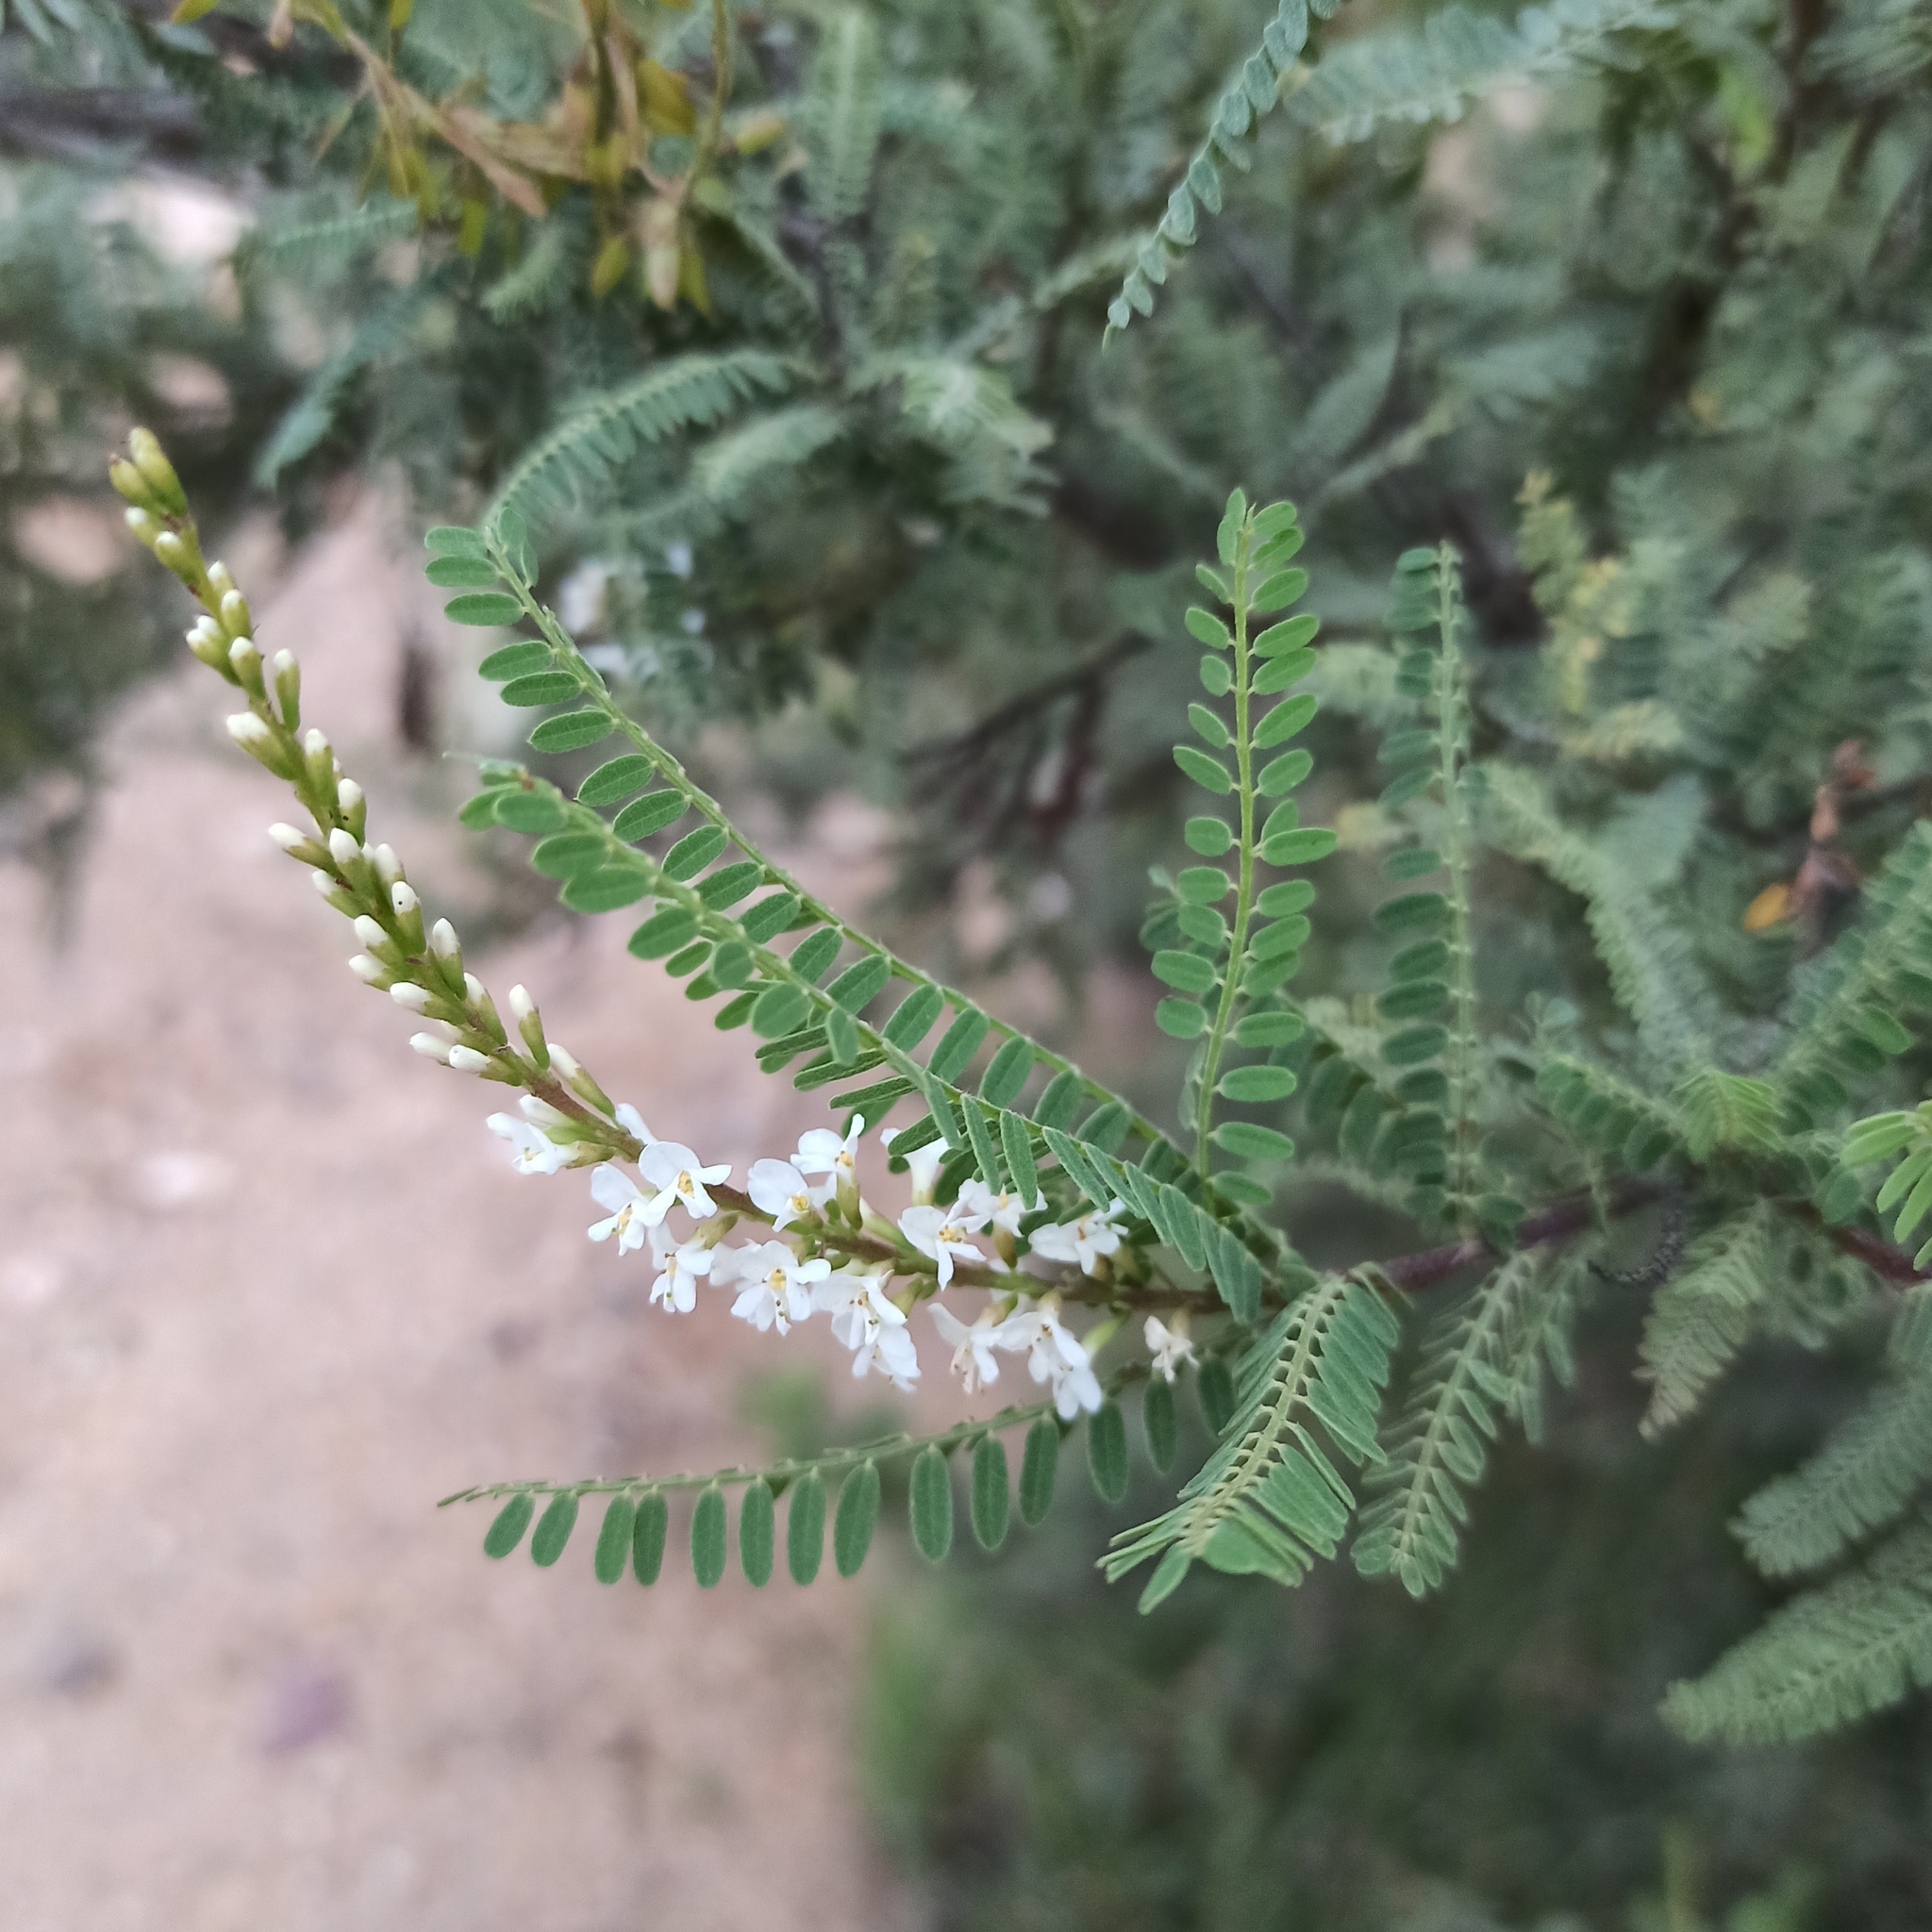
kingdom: Plantae
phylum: Tracheophyta
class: Magnoliopsida
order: Fabales
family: Fabaceae
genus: Eysenhardtia
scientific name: Eysenhardtia polystachya
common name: Kidneywood
